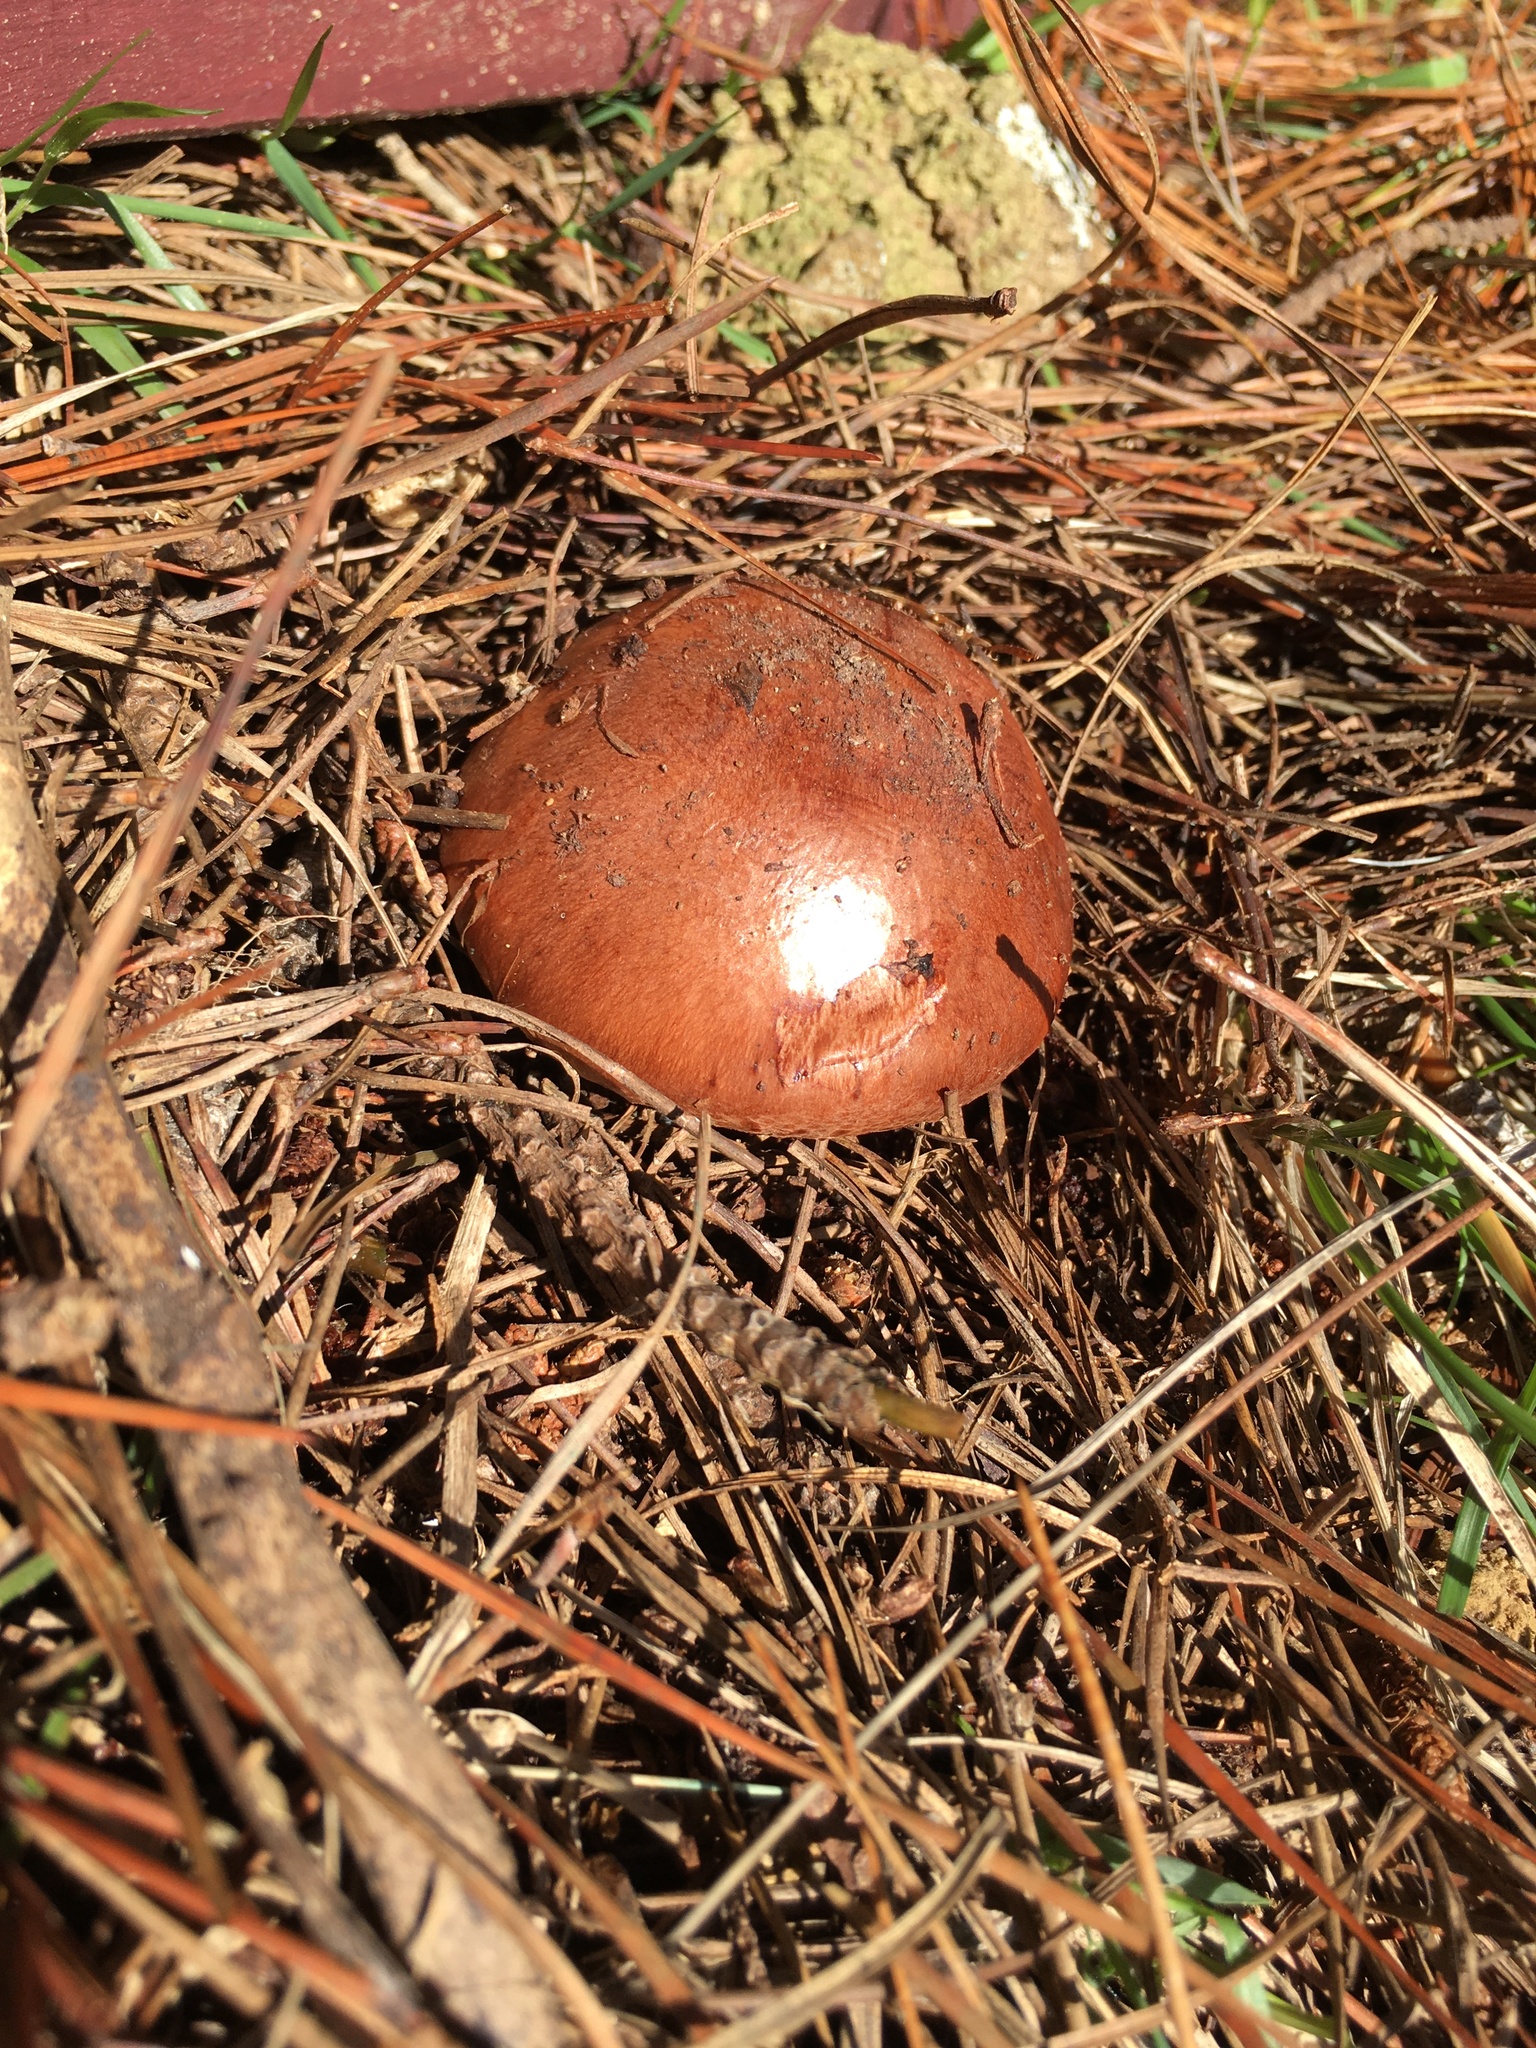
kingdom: Fungi
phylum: Basidiomycota
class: Agaricomycetes
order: Agaricales
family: Tricholomataceae
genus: Tricholoma
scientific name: Tricholoma batschii
